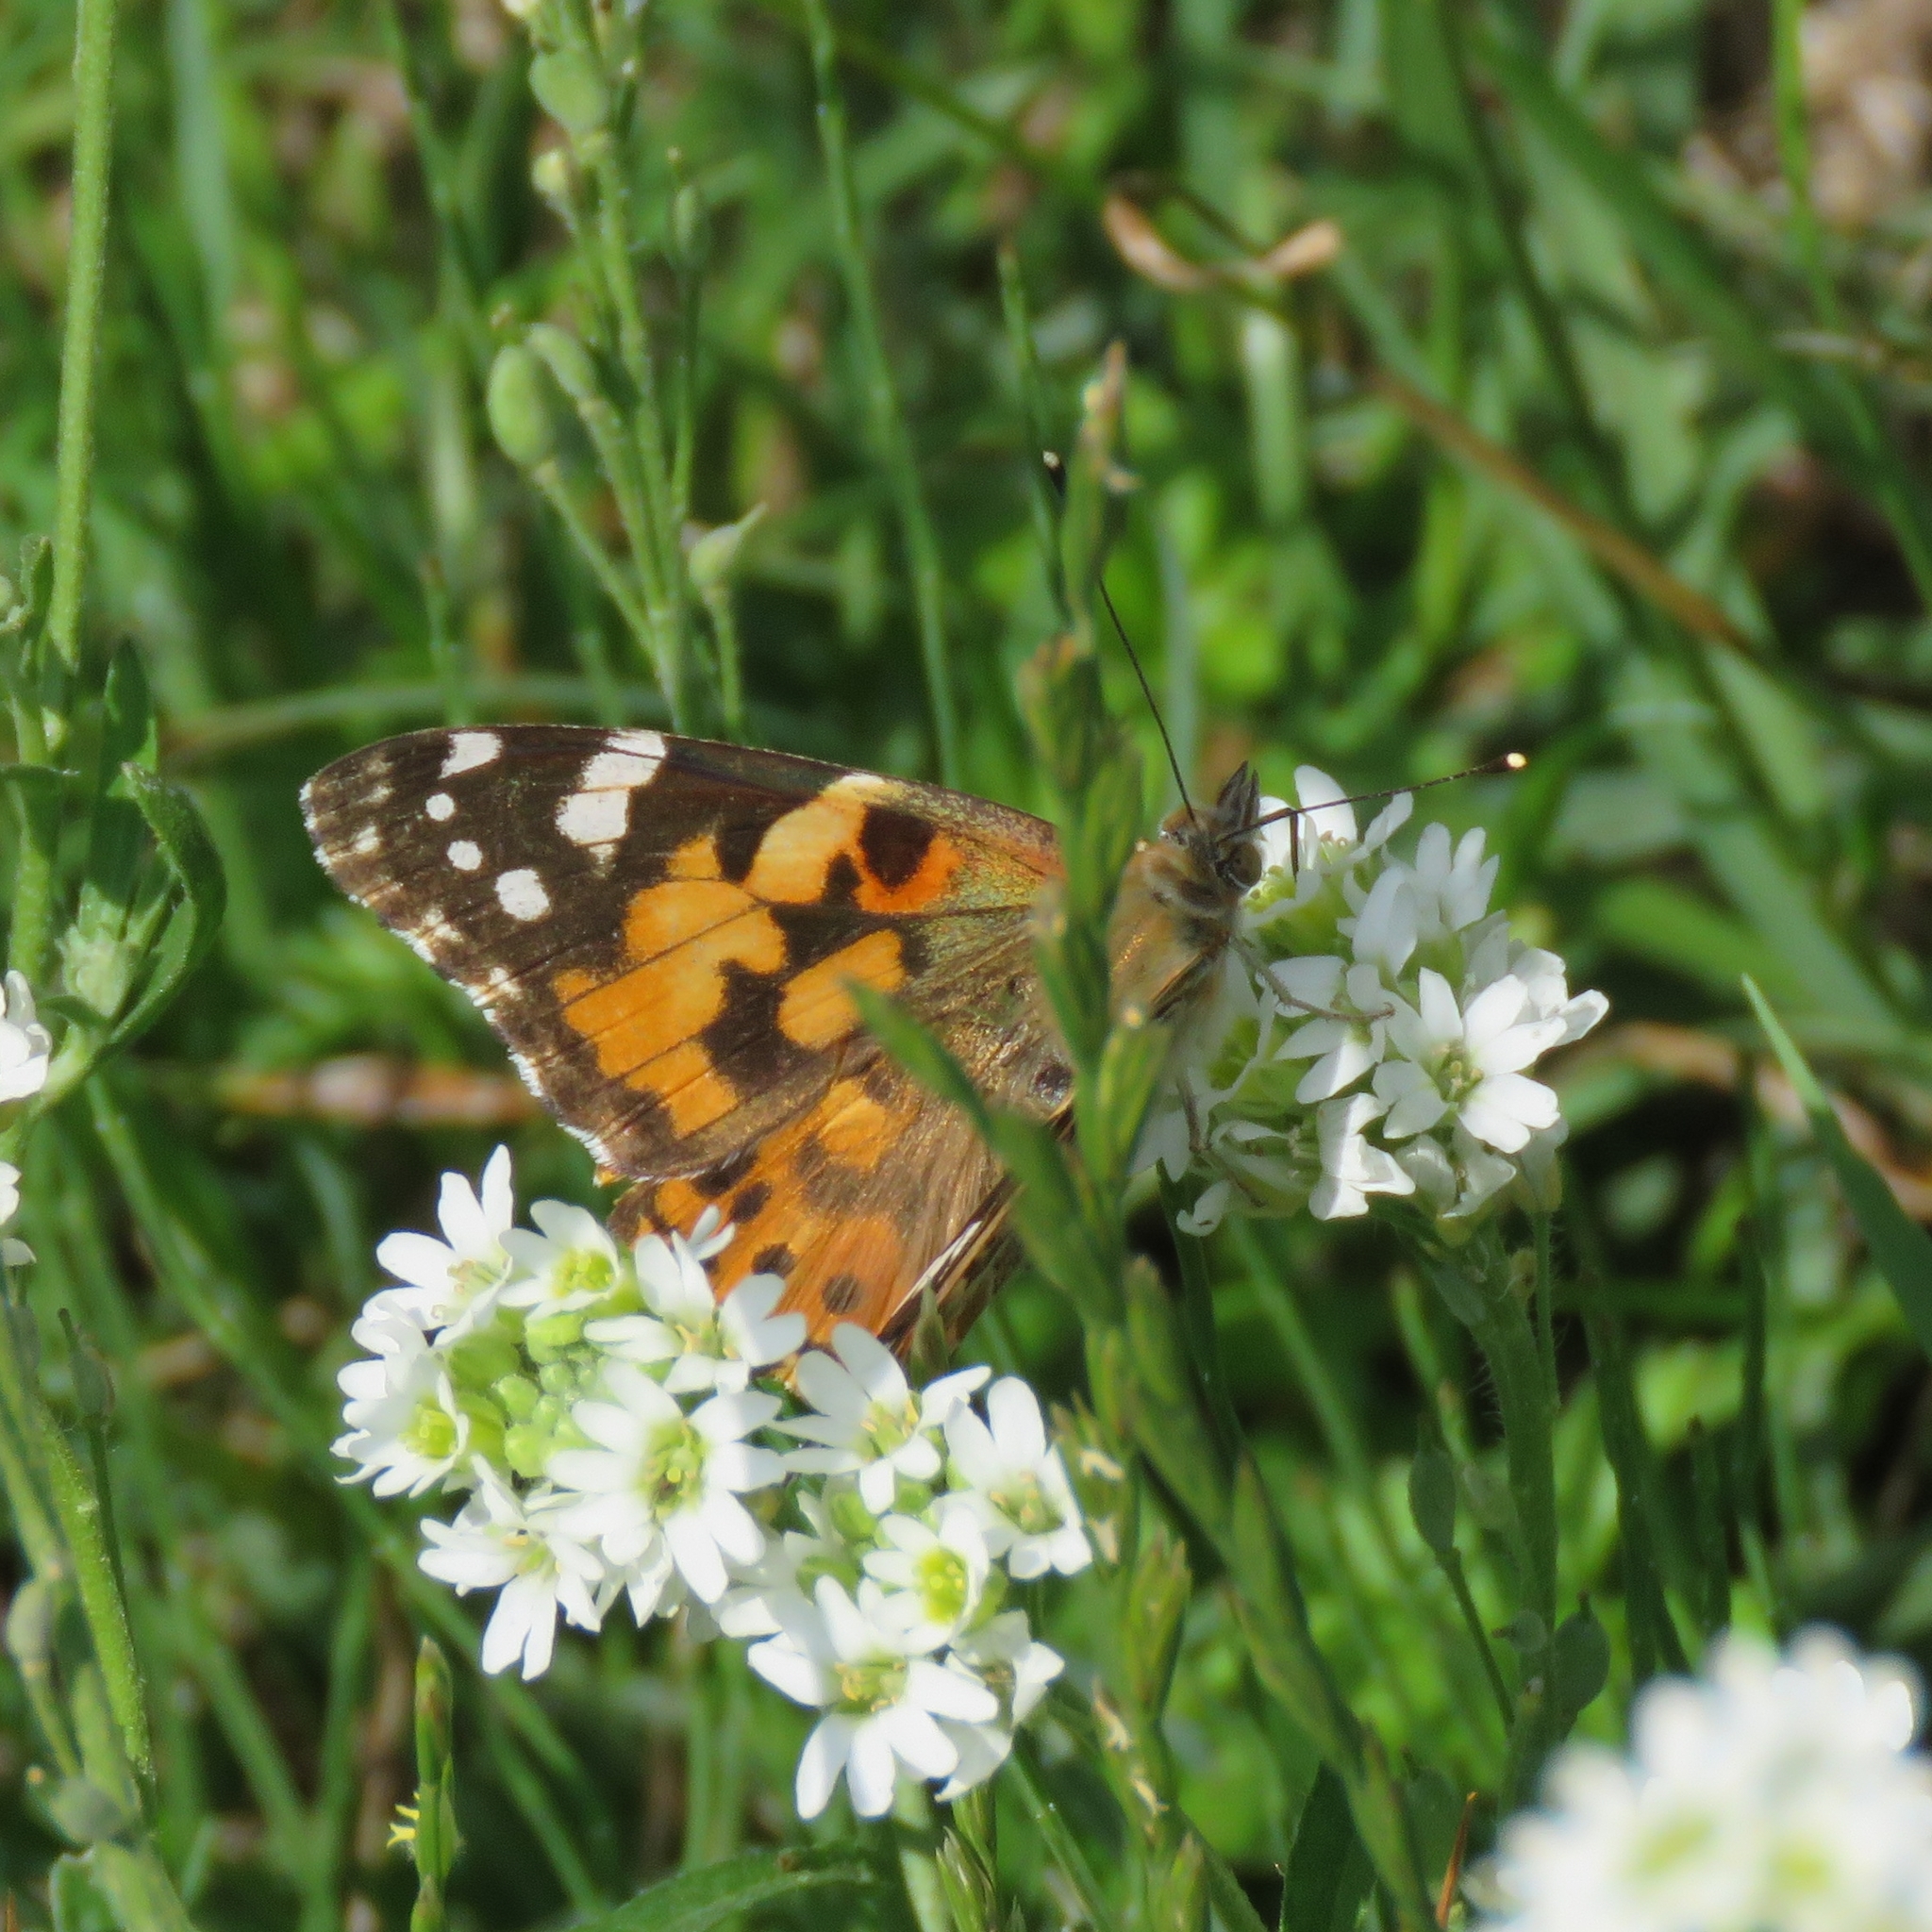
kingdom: Animalia
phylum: Arthropoda
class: Insecta
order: Lepidoptera
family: Nymphalidae
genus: Vanessa
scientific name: Vanessa cardui
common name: Painted lady
